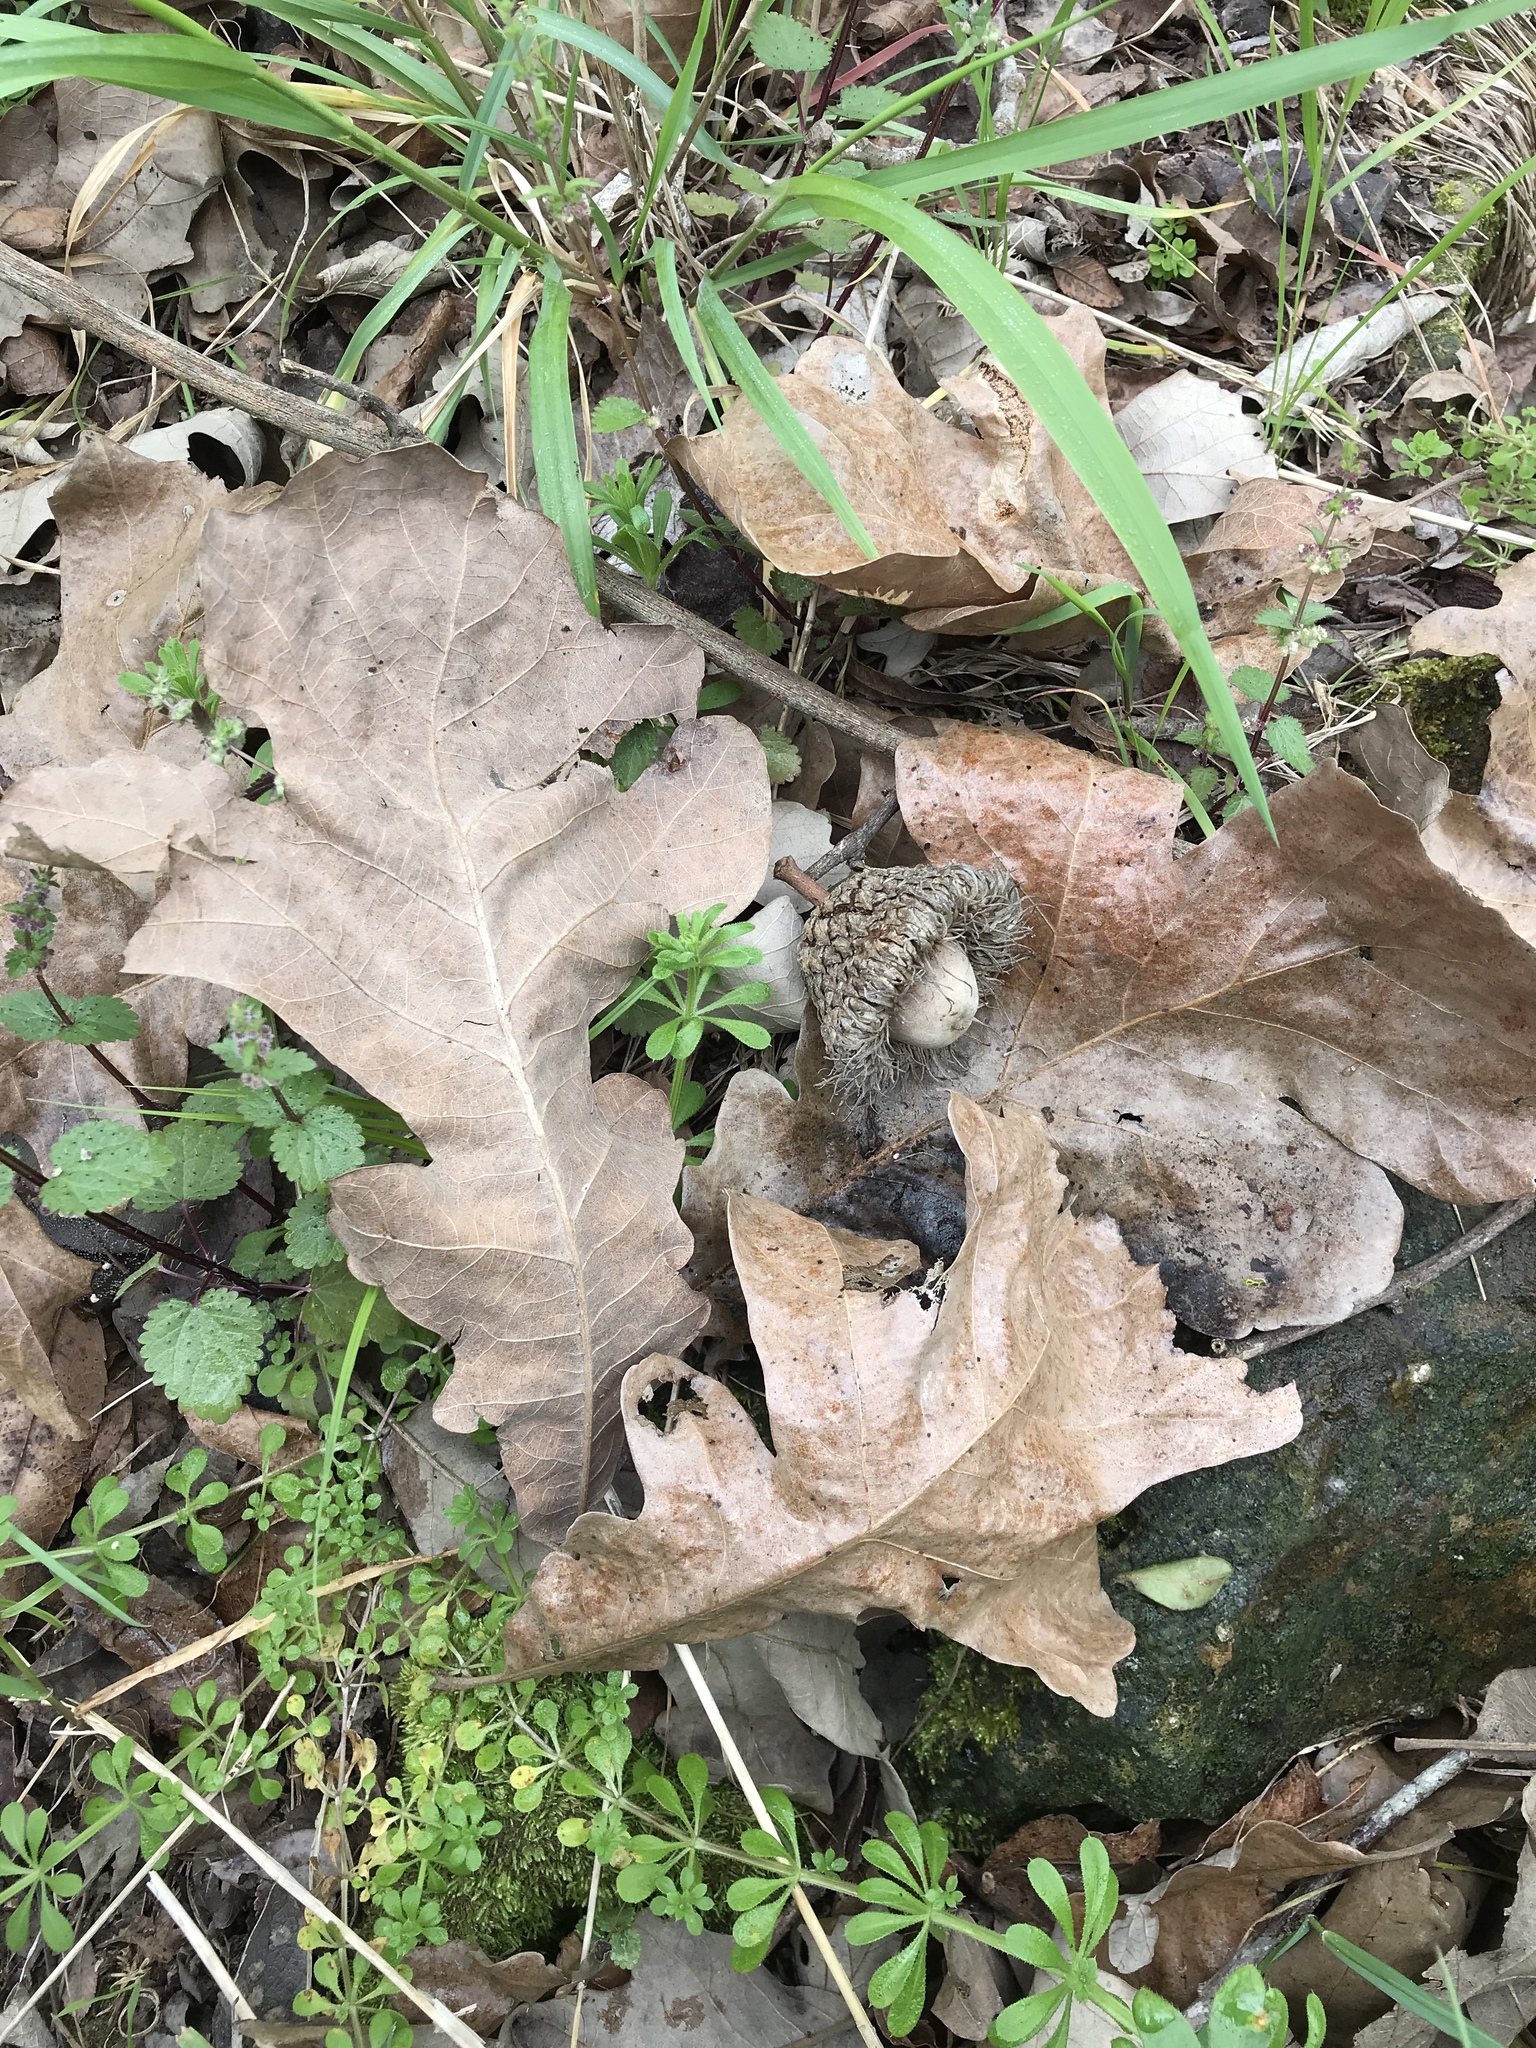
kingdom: Plantae
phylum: Tracheophyta
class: Magnoliopsida
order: Fagales
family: Fagaceae
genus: Quercus
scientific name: Quercus macrocarpa
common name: Bur oak
